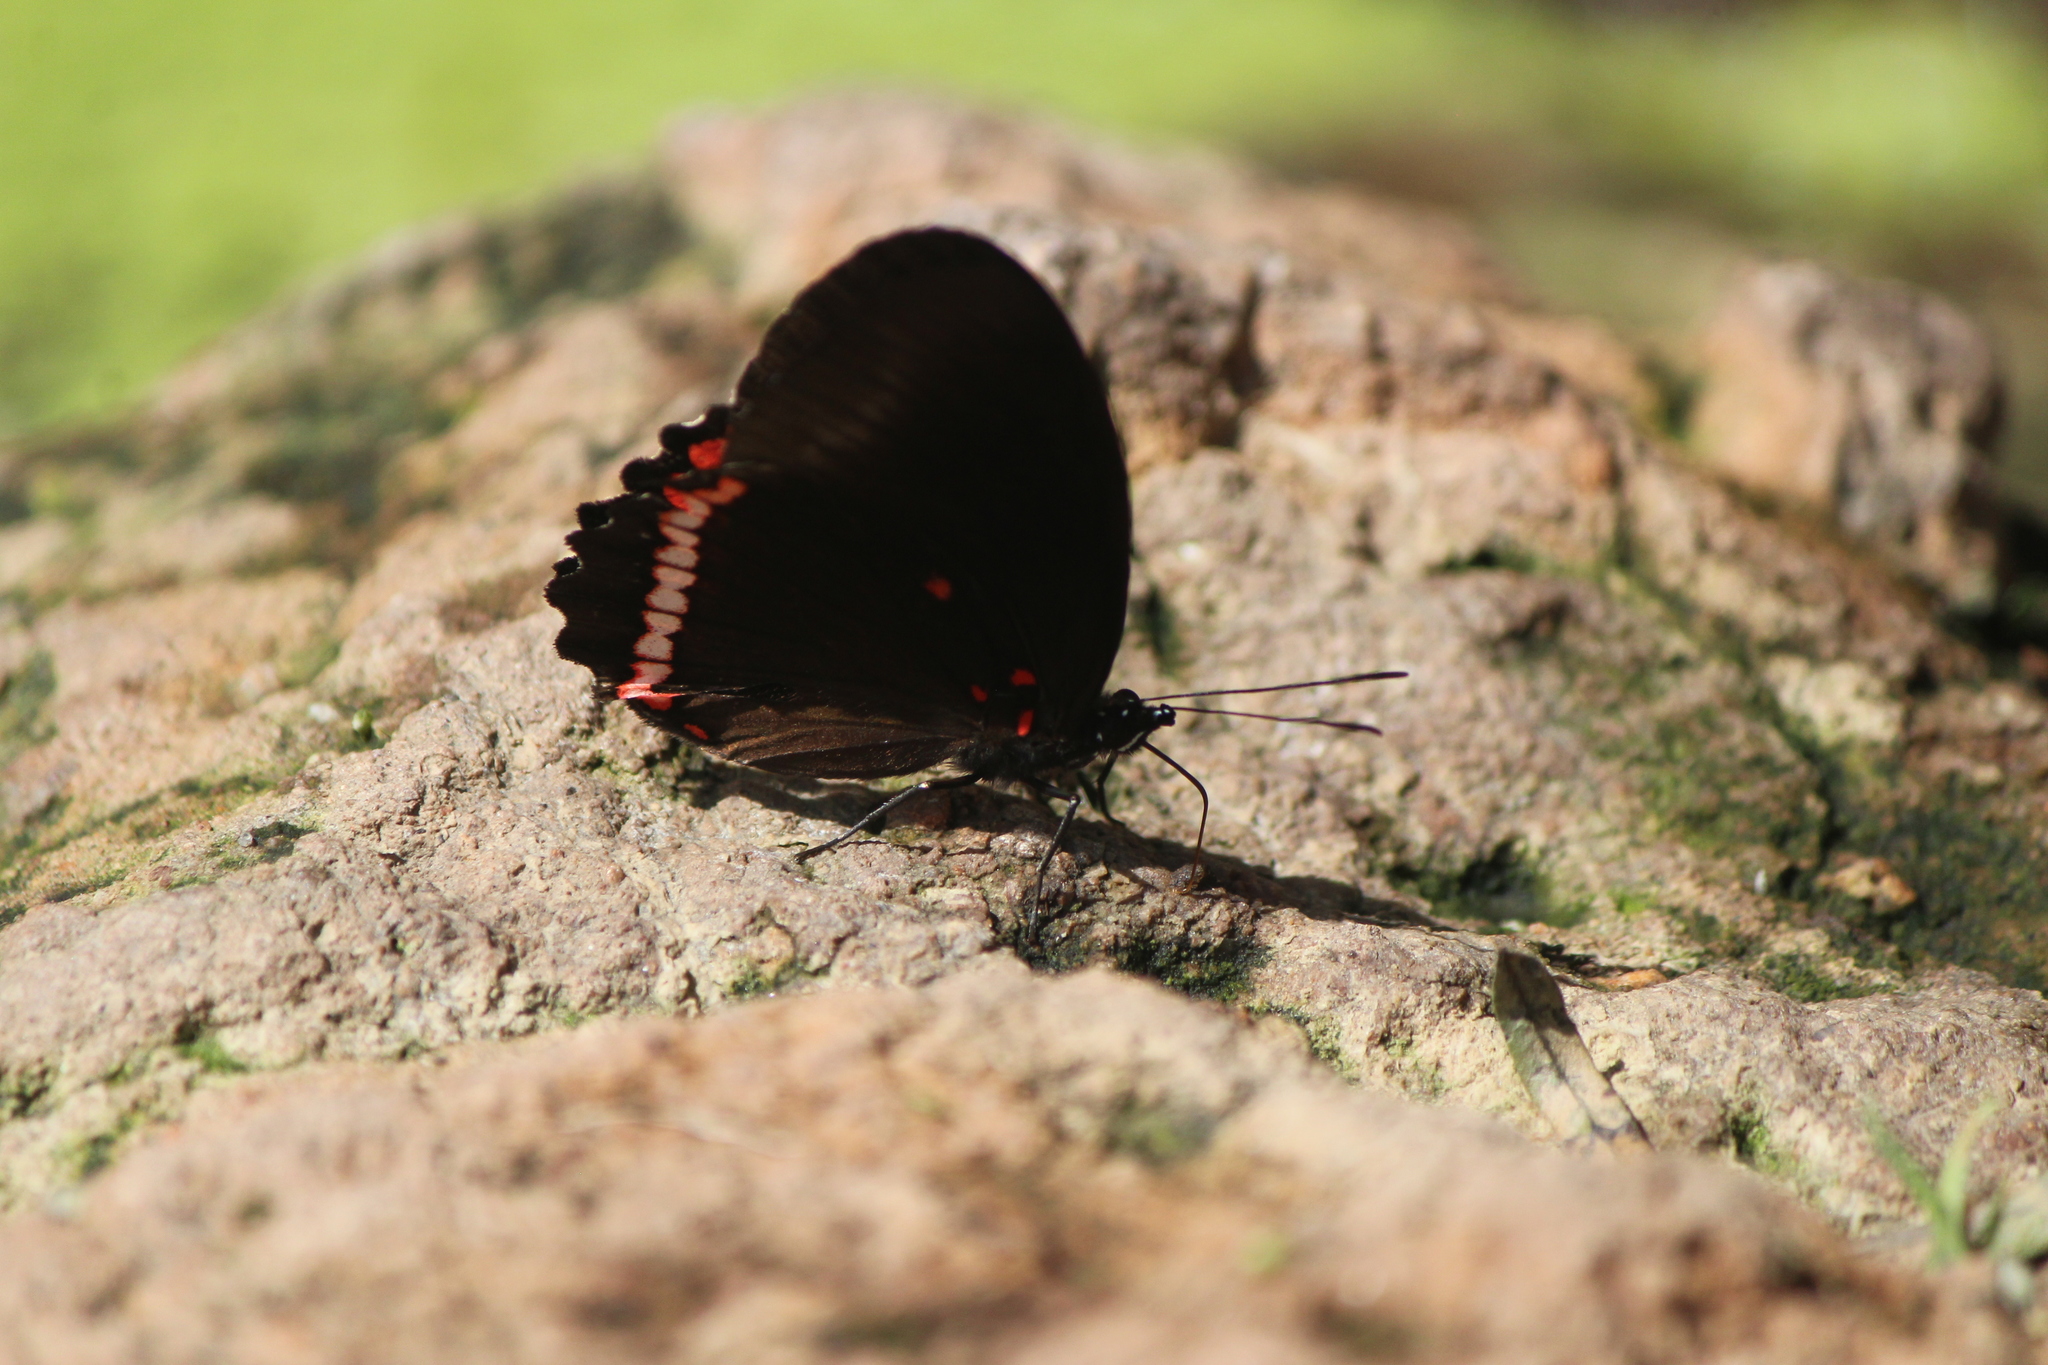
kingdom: Animalia
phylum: Arthropoda
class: Insecta
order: Lepidoptera
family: Nymphalidae
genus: Biblis
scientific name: Biblis aganisa
